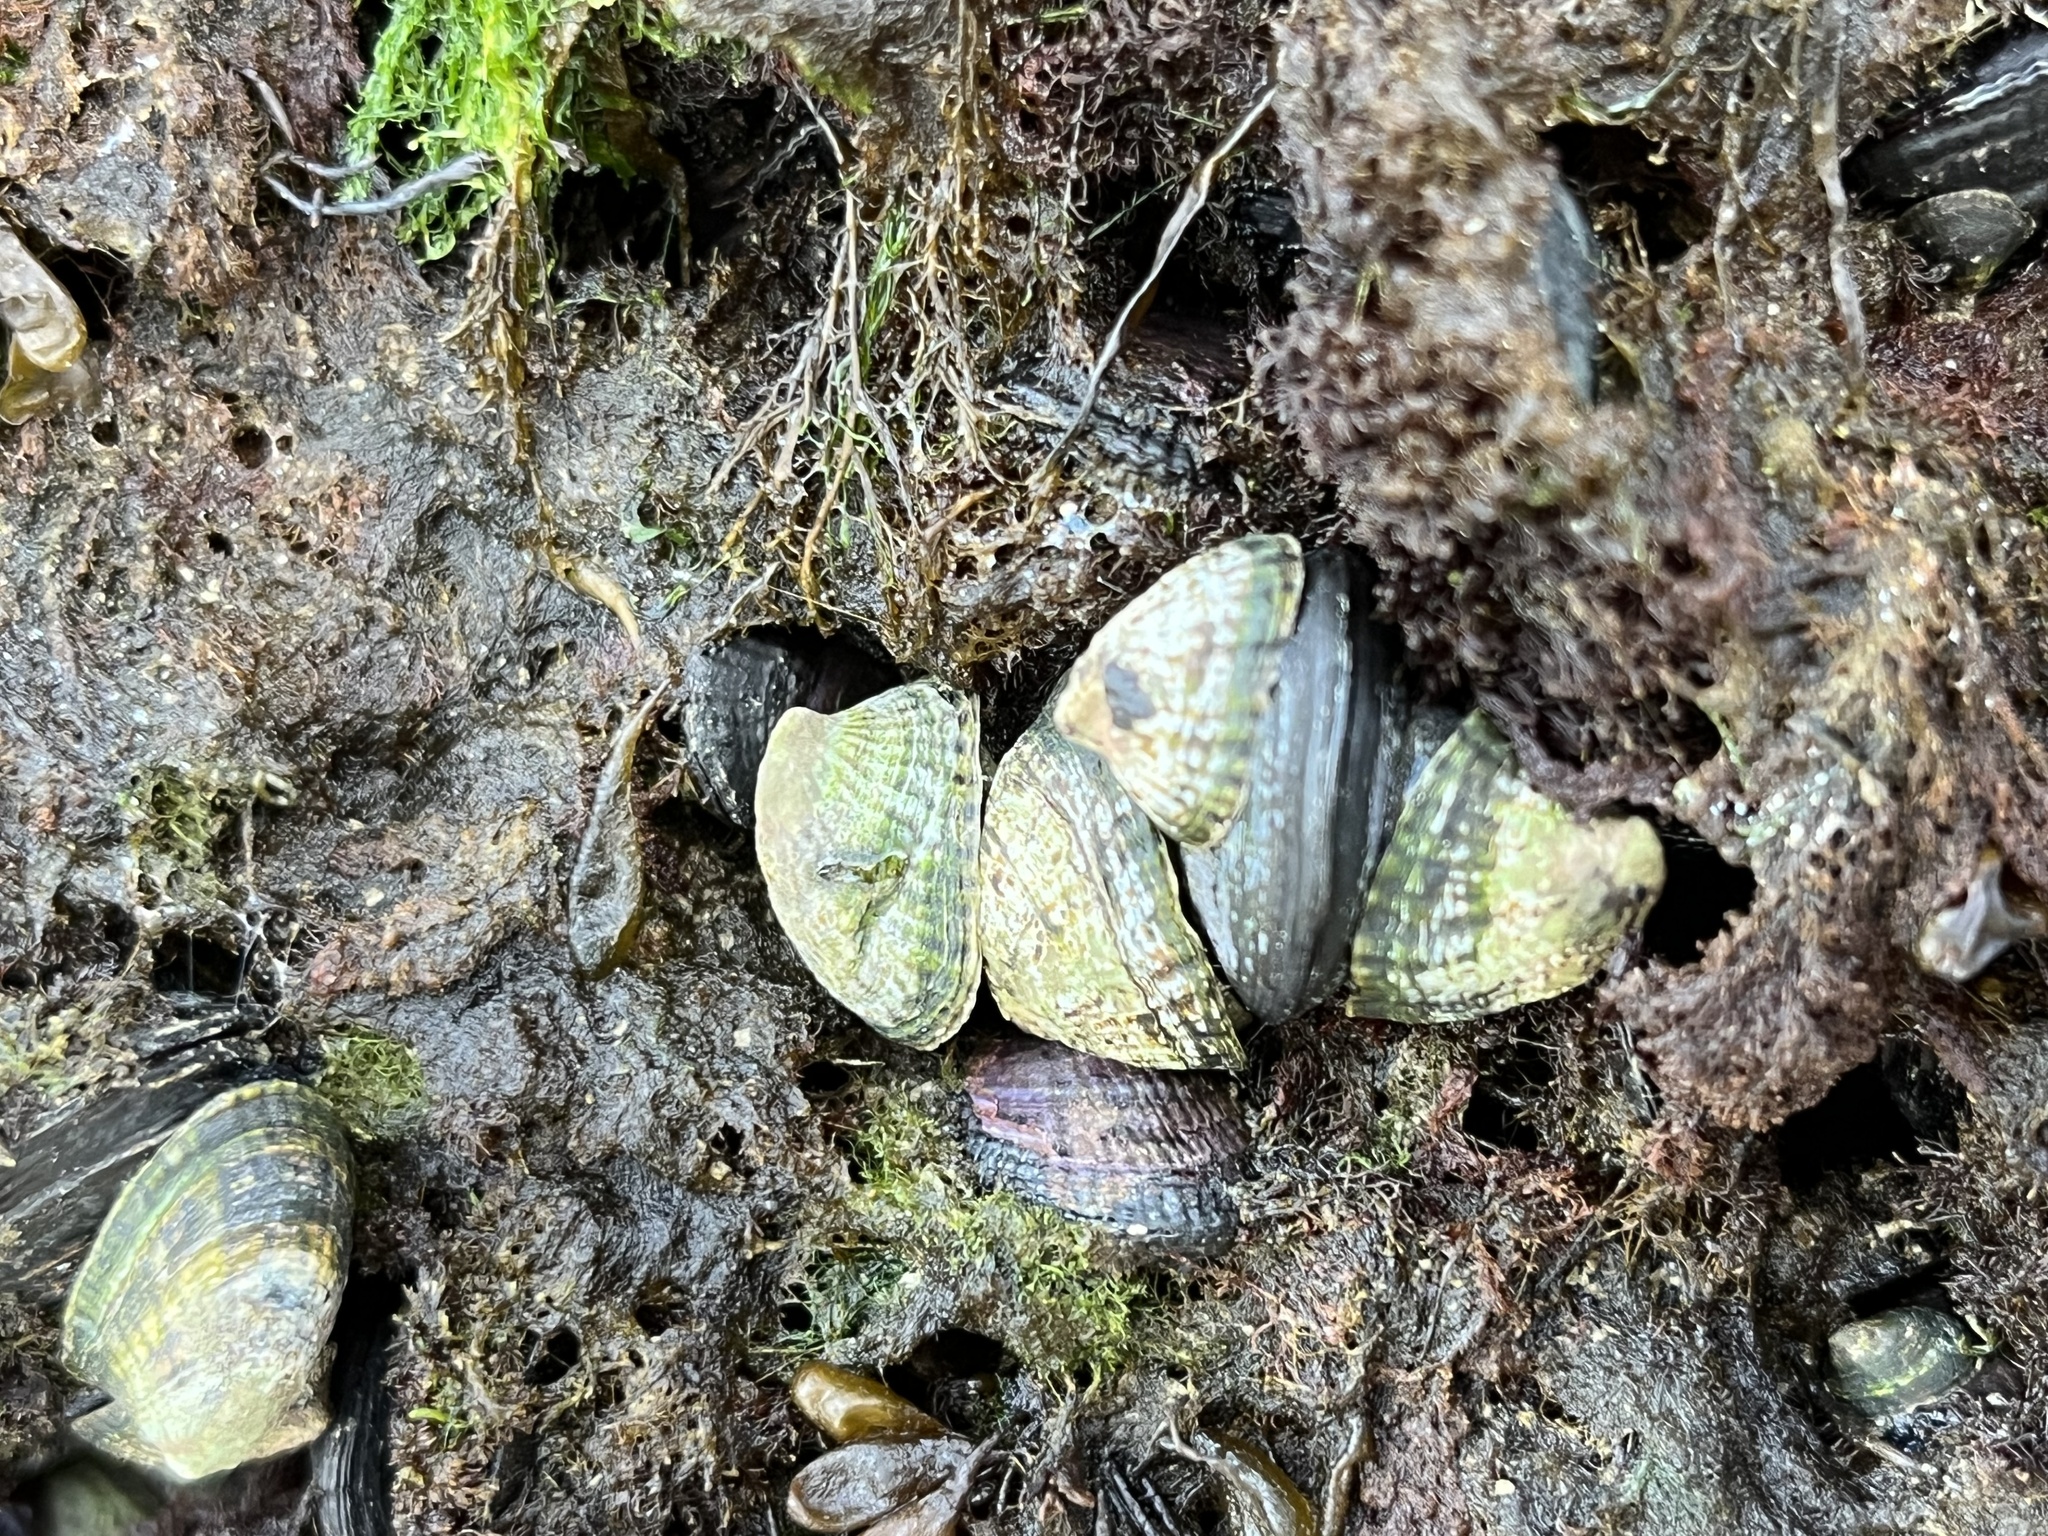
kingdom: Animalia
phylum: Mollusca
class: Gastropoda
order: Siphonariida
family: Siphonariidae
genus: Siphonaria
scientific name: Siphonaria lessonii
